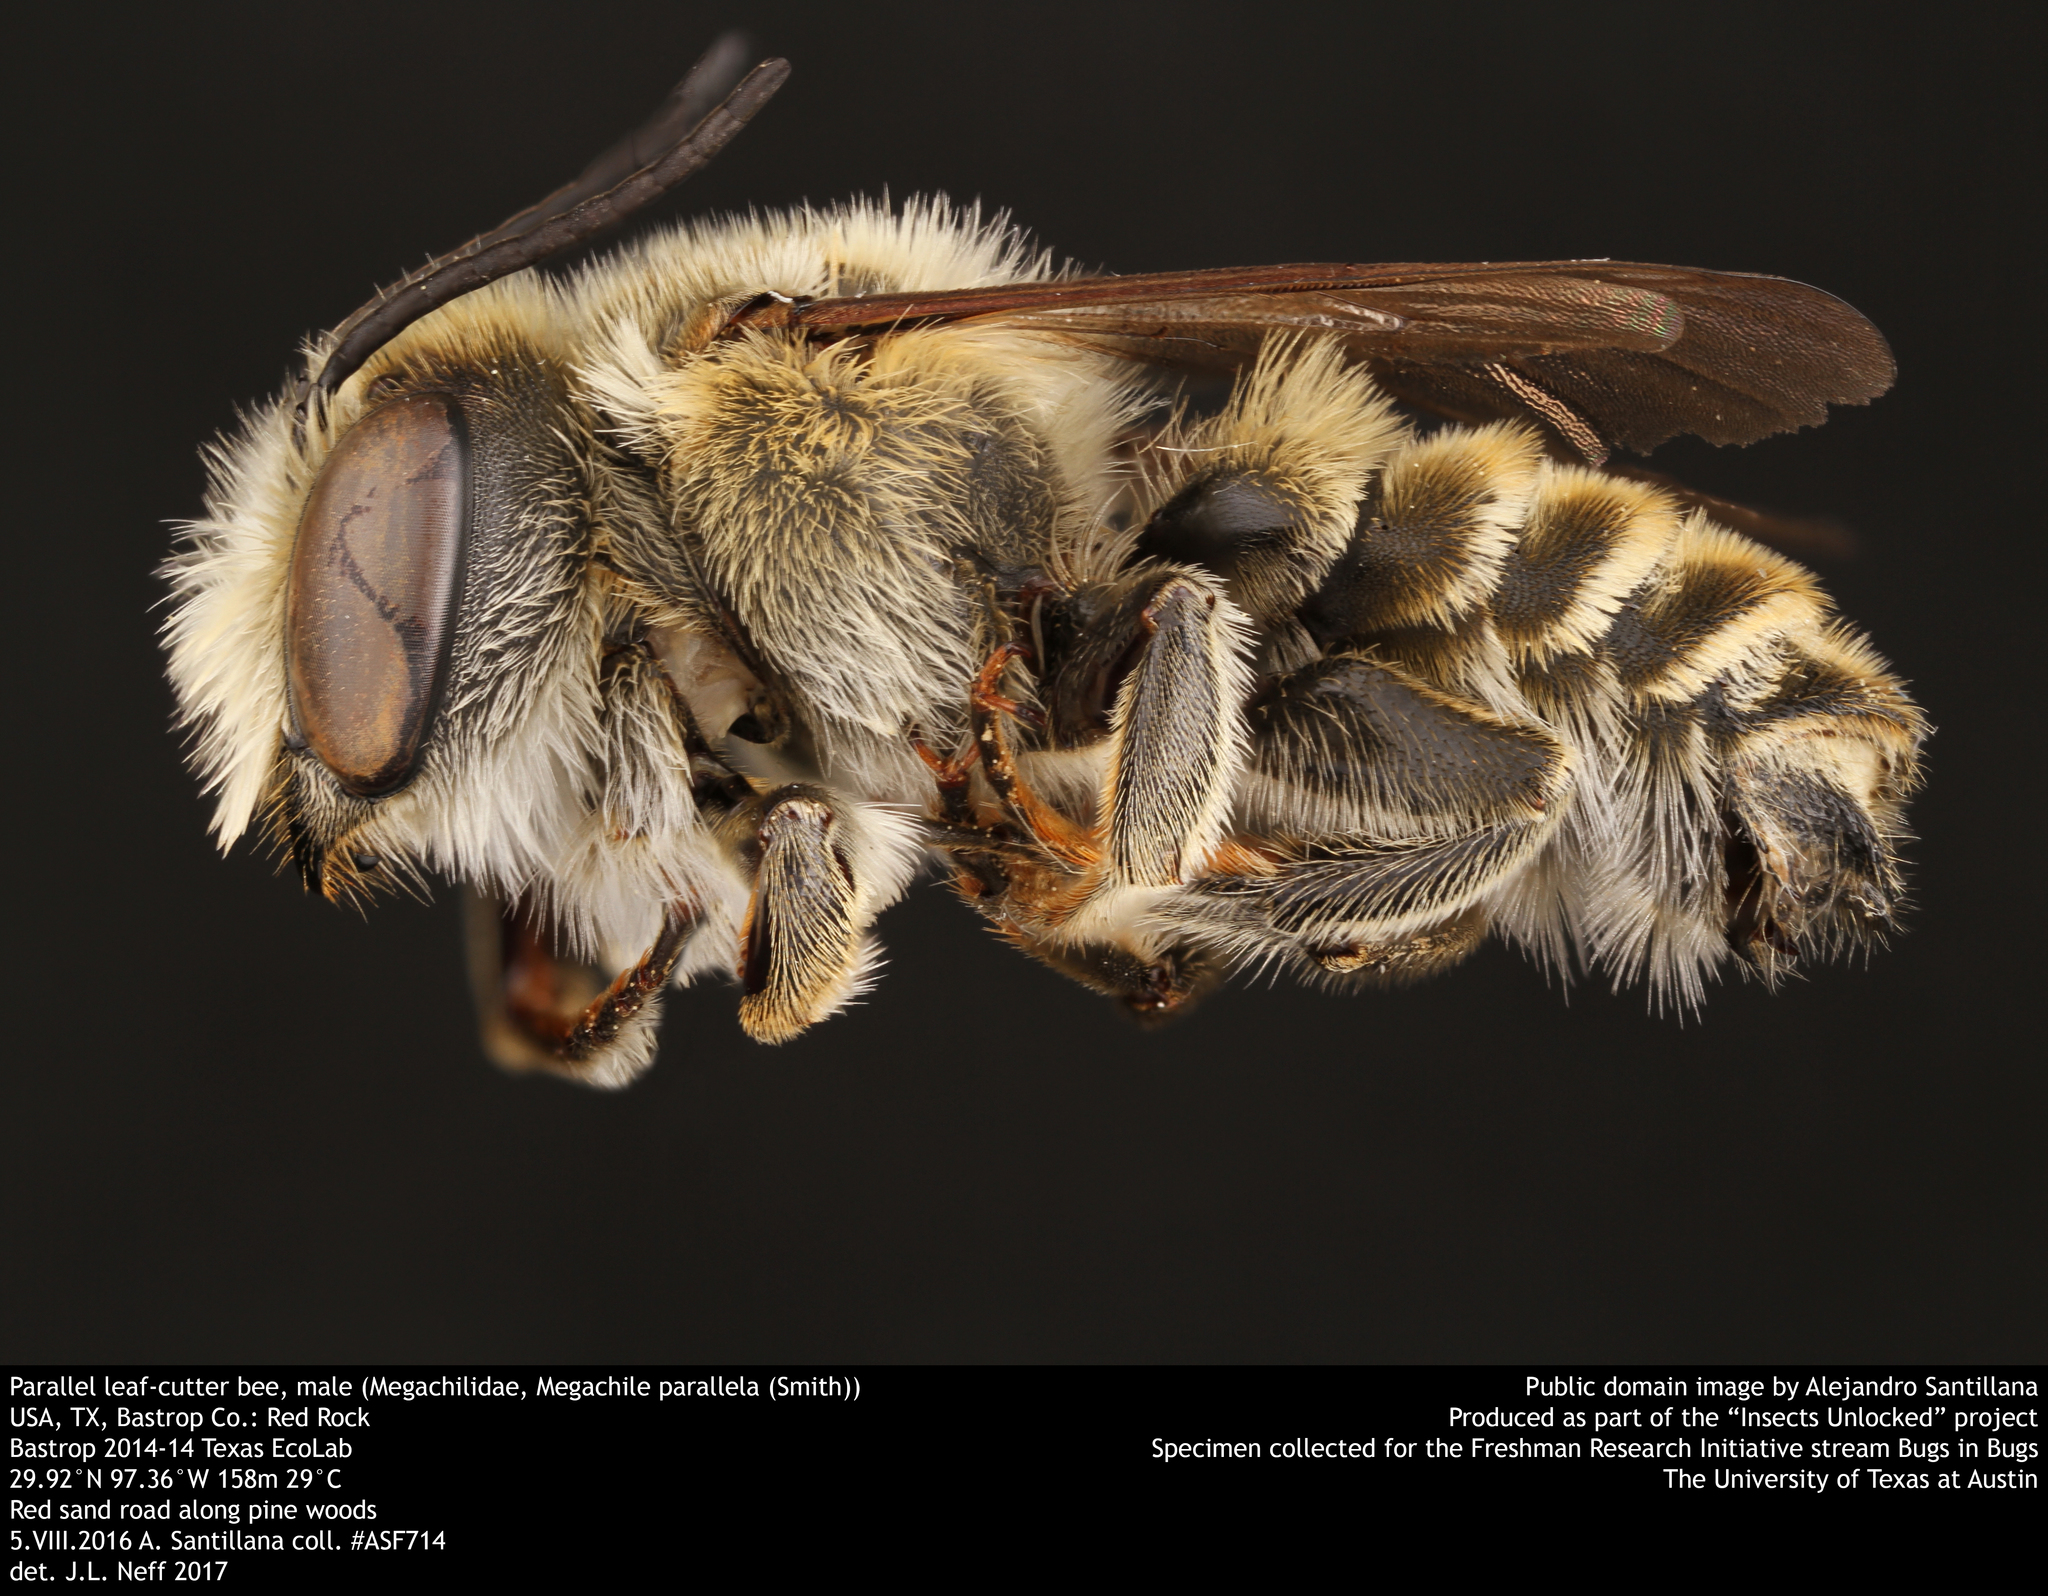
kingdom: Animalia
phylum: Arthropoda
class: Insecta
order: Hymenoptera
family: Megachilidae
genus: Megachile
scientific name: Megachile parallela
